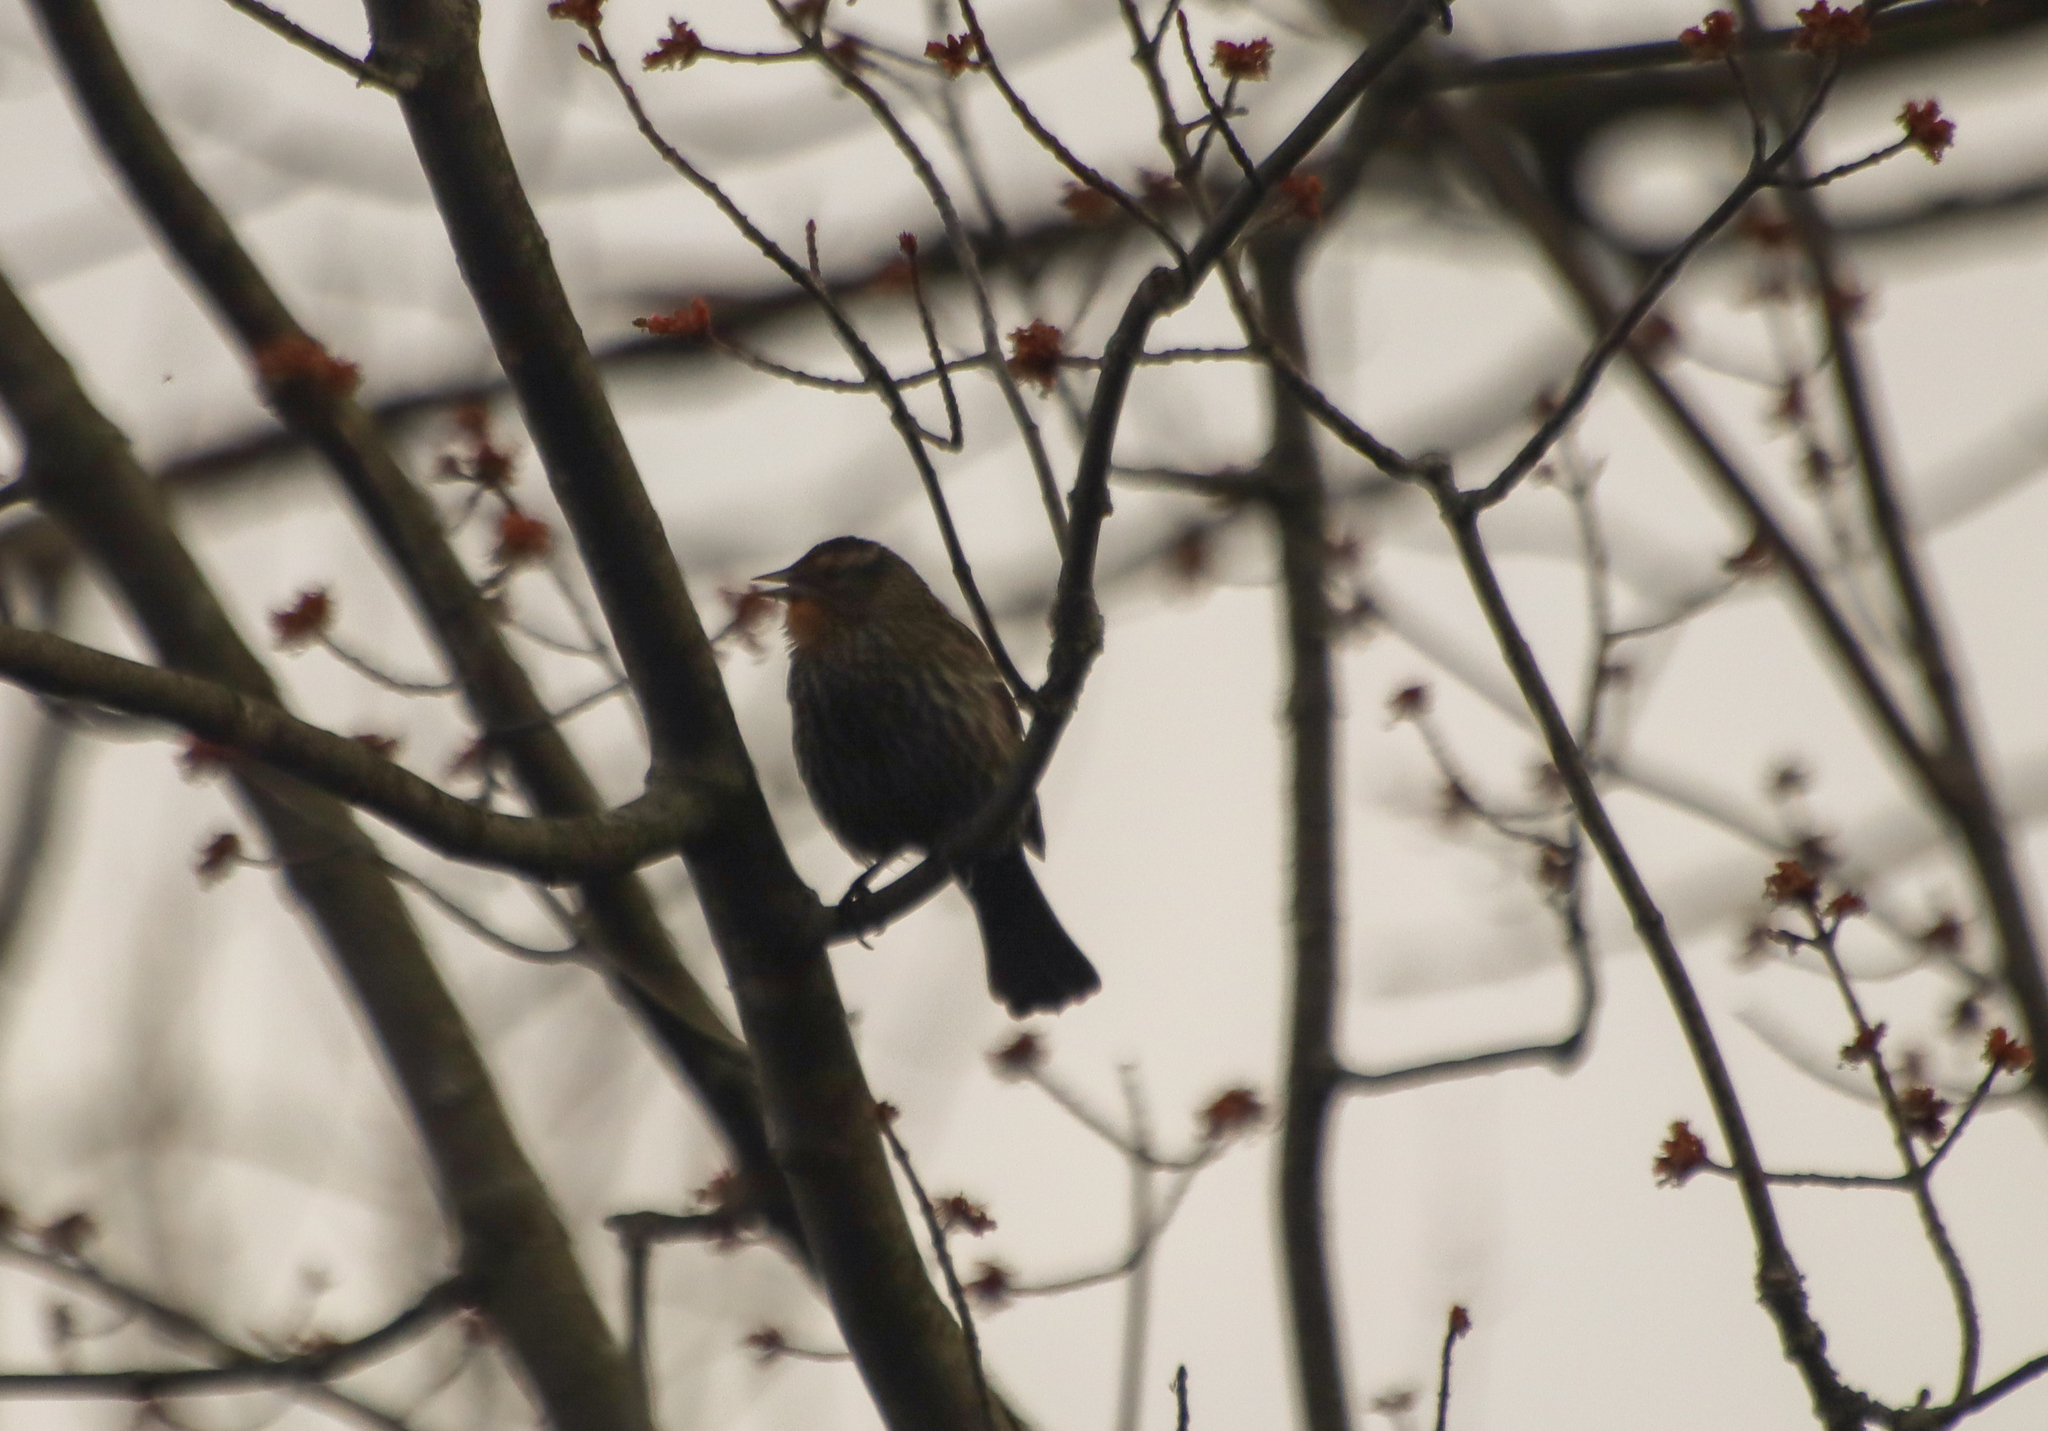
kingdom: Animalia
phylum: Chordata
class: Aves
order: Passeriformes
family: Icteridae
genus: Agelaius
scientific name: Agelaius phoeniceus
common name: Red-winged blackbird
